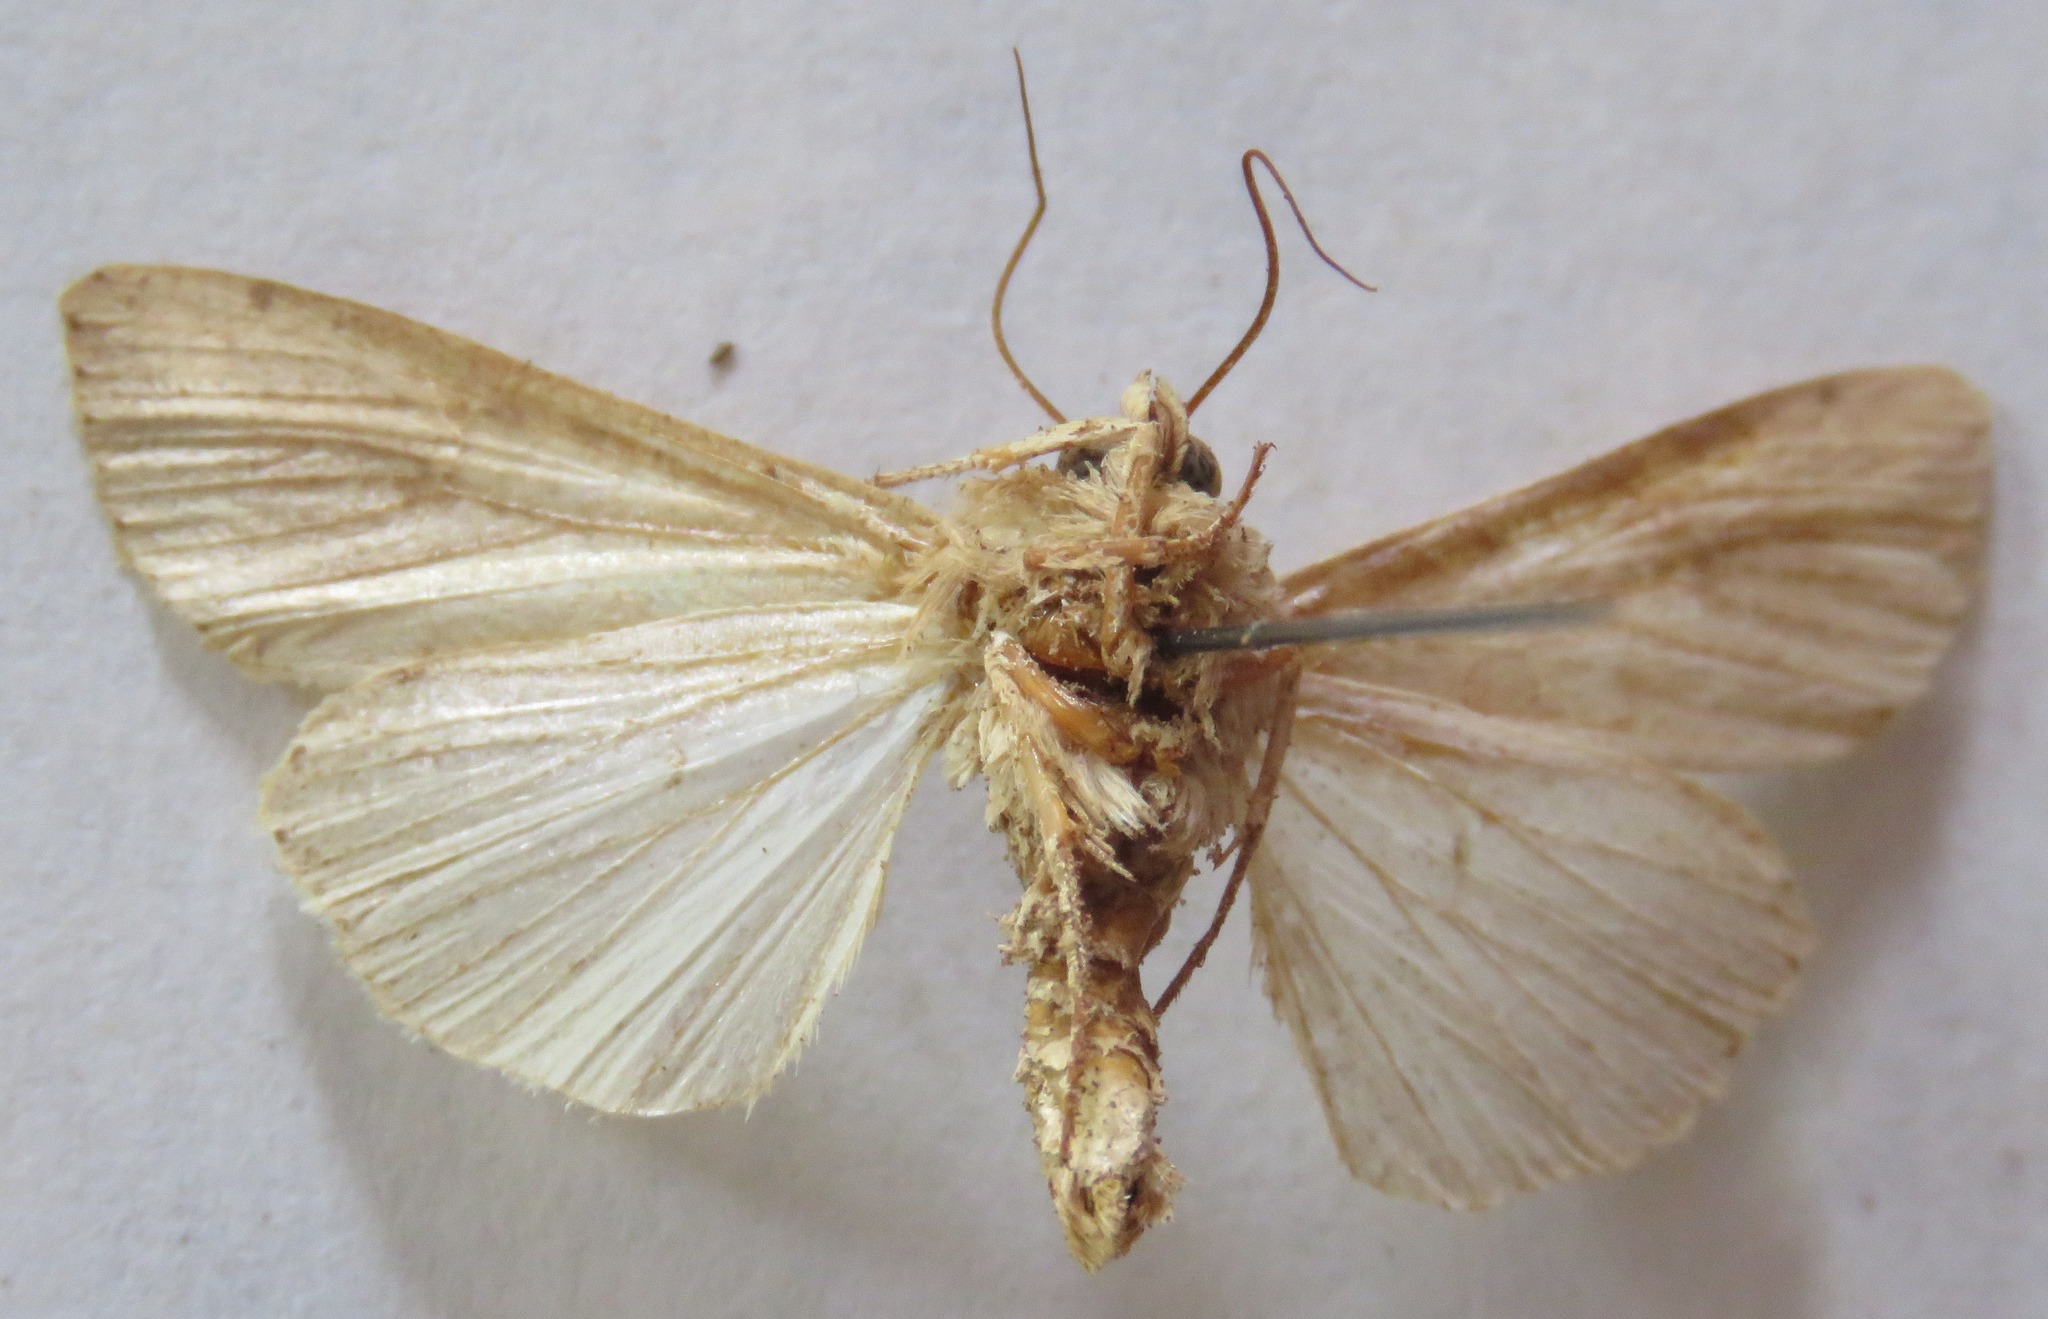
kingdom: Animalia
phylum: Arthropoda
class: Insecta
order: Lepidoptera
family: Noctuidae
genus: Mythimna
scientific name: Mythimna unipuncta
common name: White-speck
